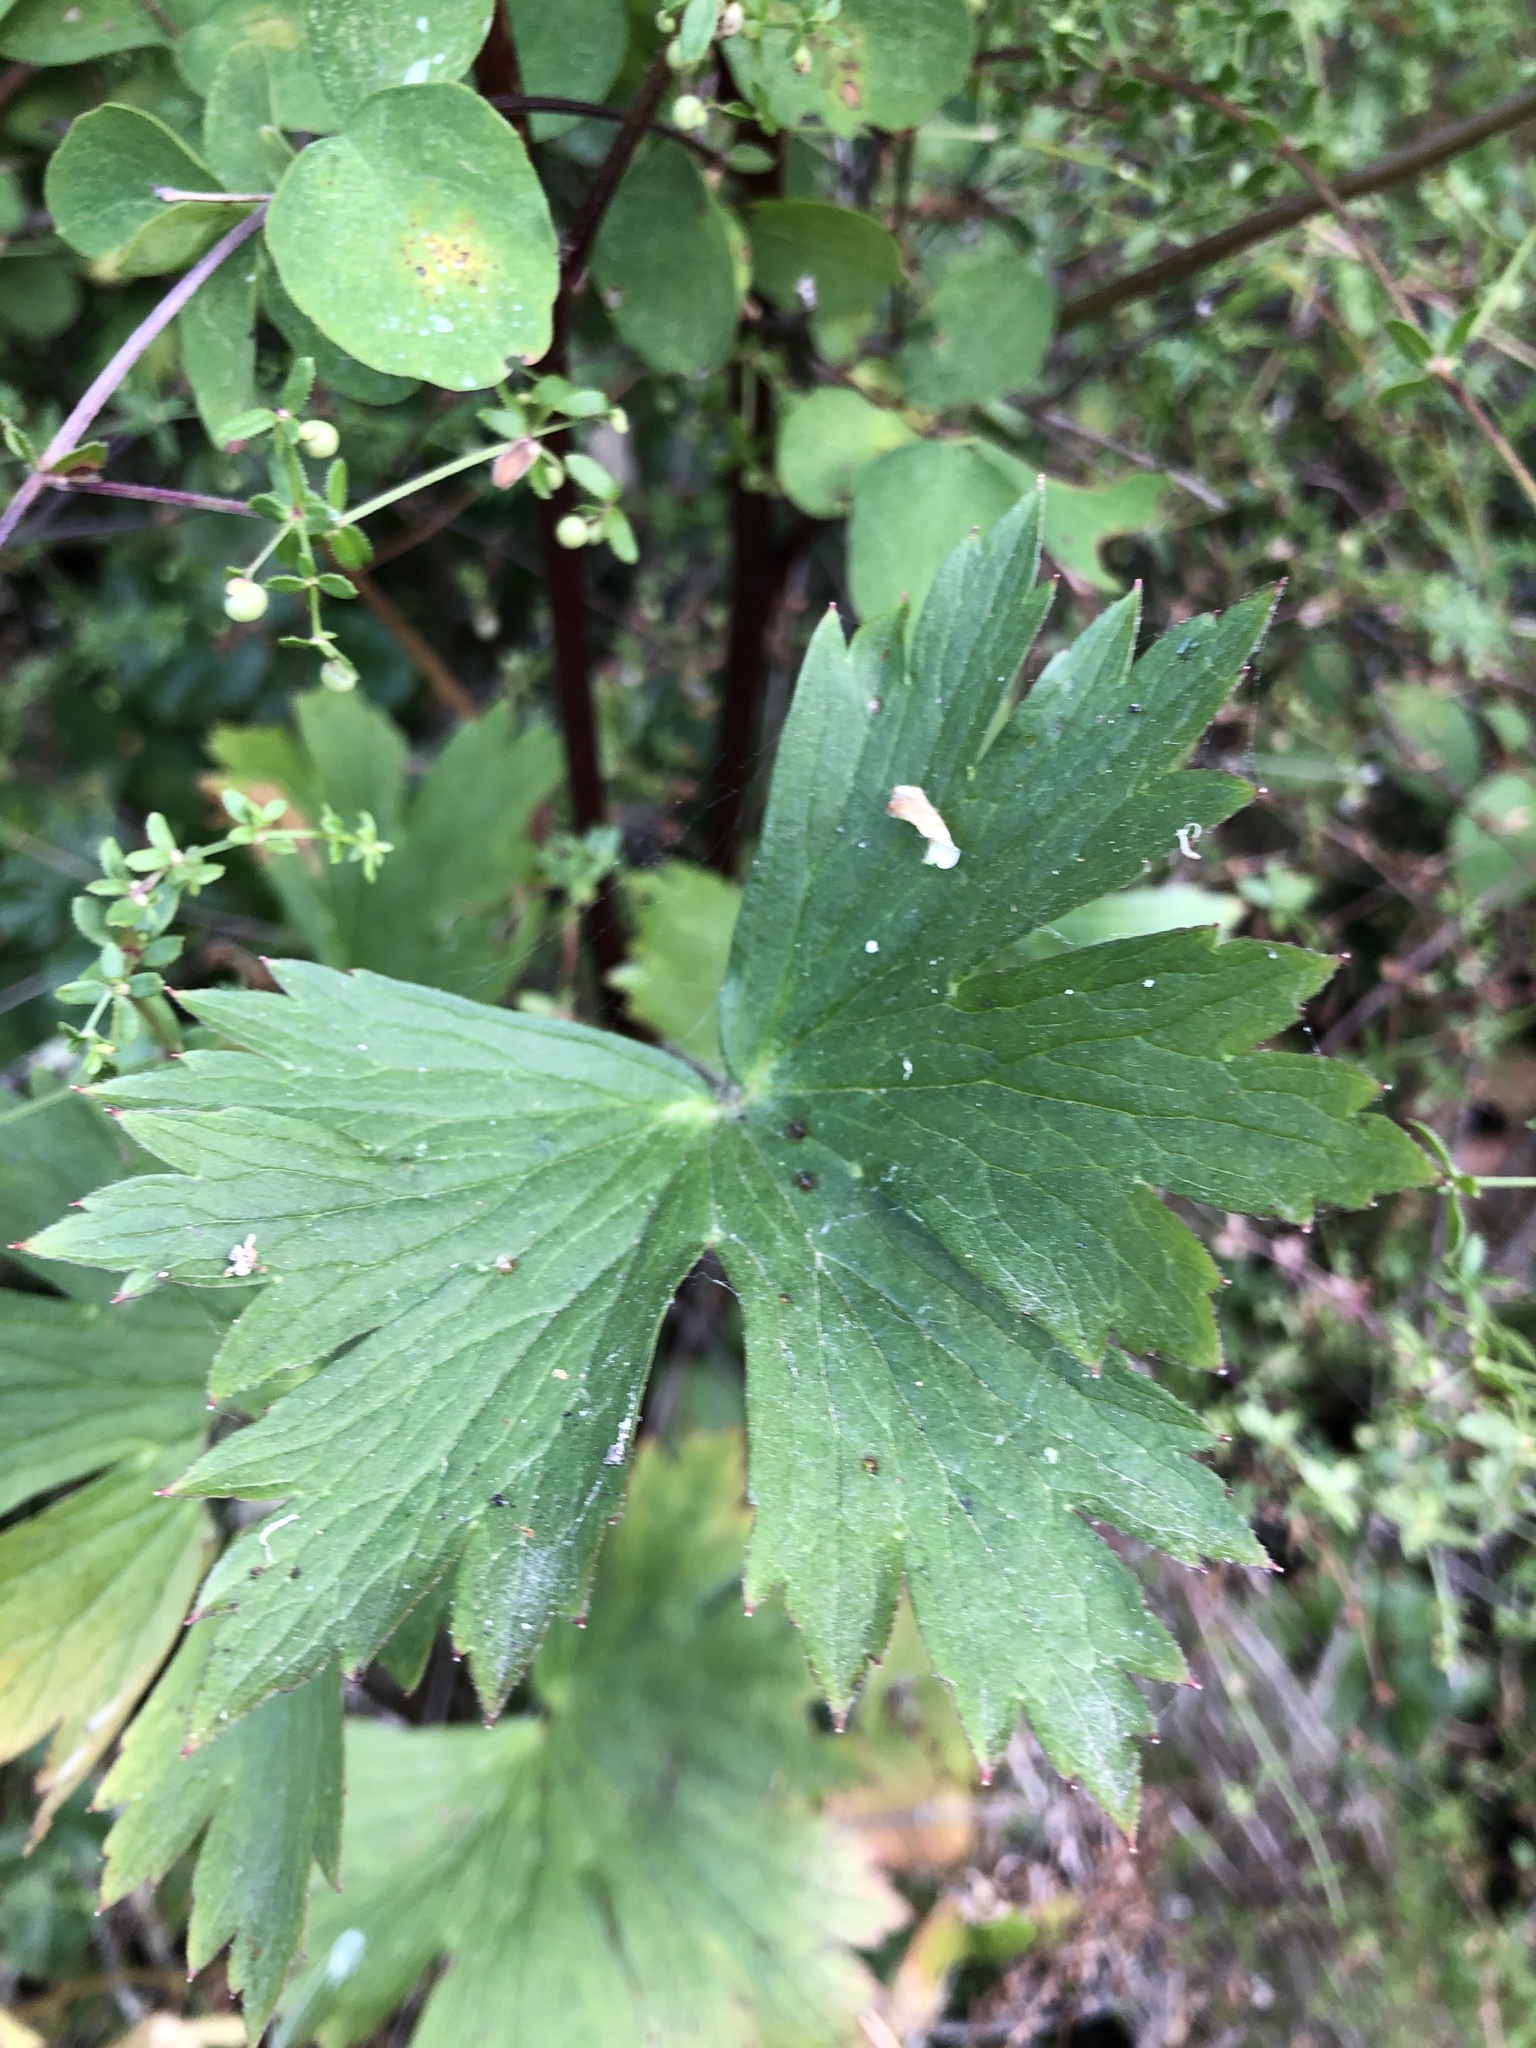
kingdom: Plantae
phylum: Tracheophyta
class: Magnoliopsida
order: Ranunculales
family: Ranunculaceae
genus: Delphinium
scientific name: Delphinium californicum
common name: California larkspur
